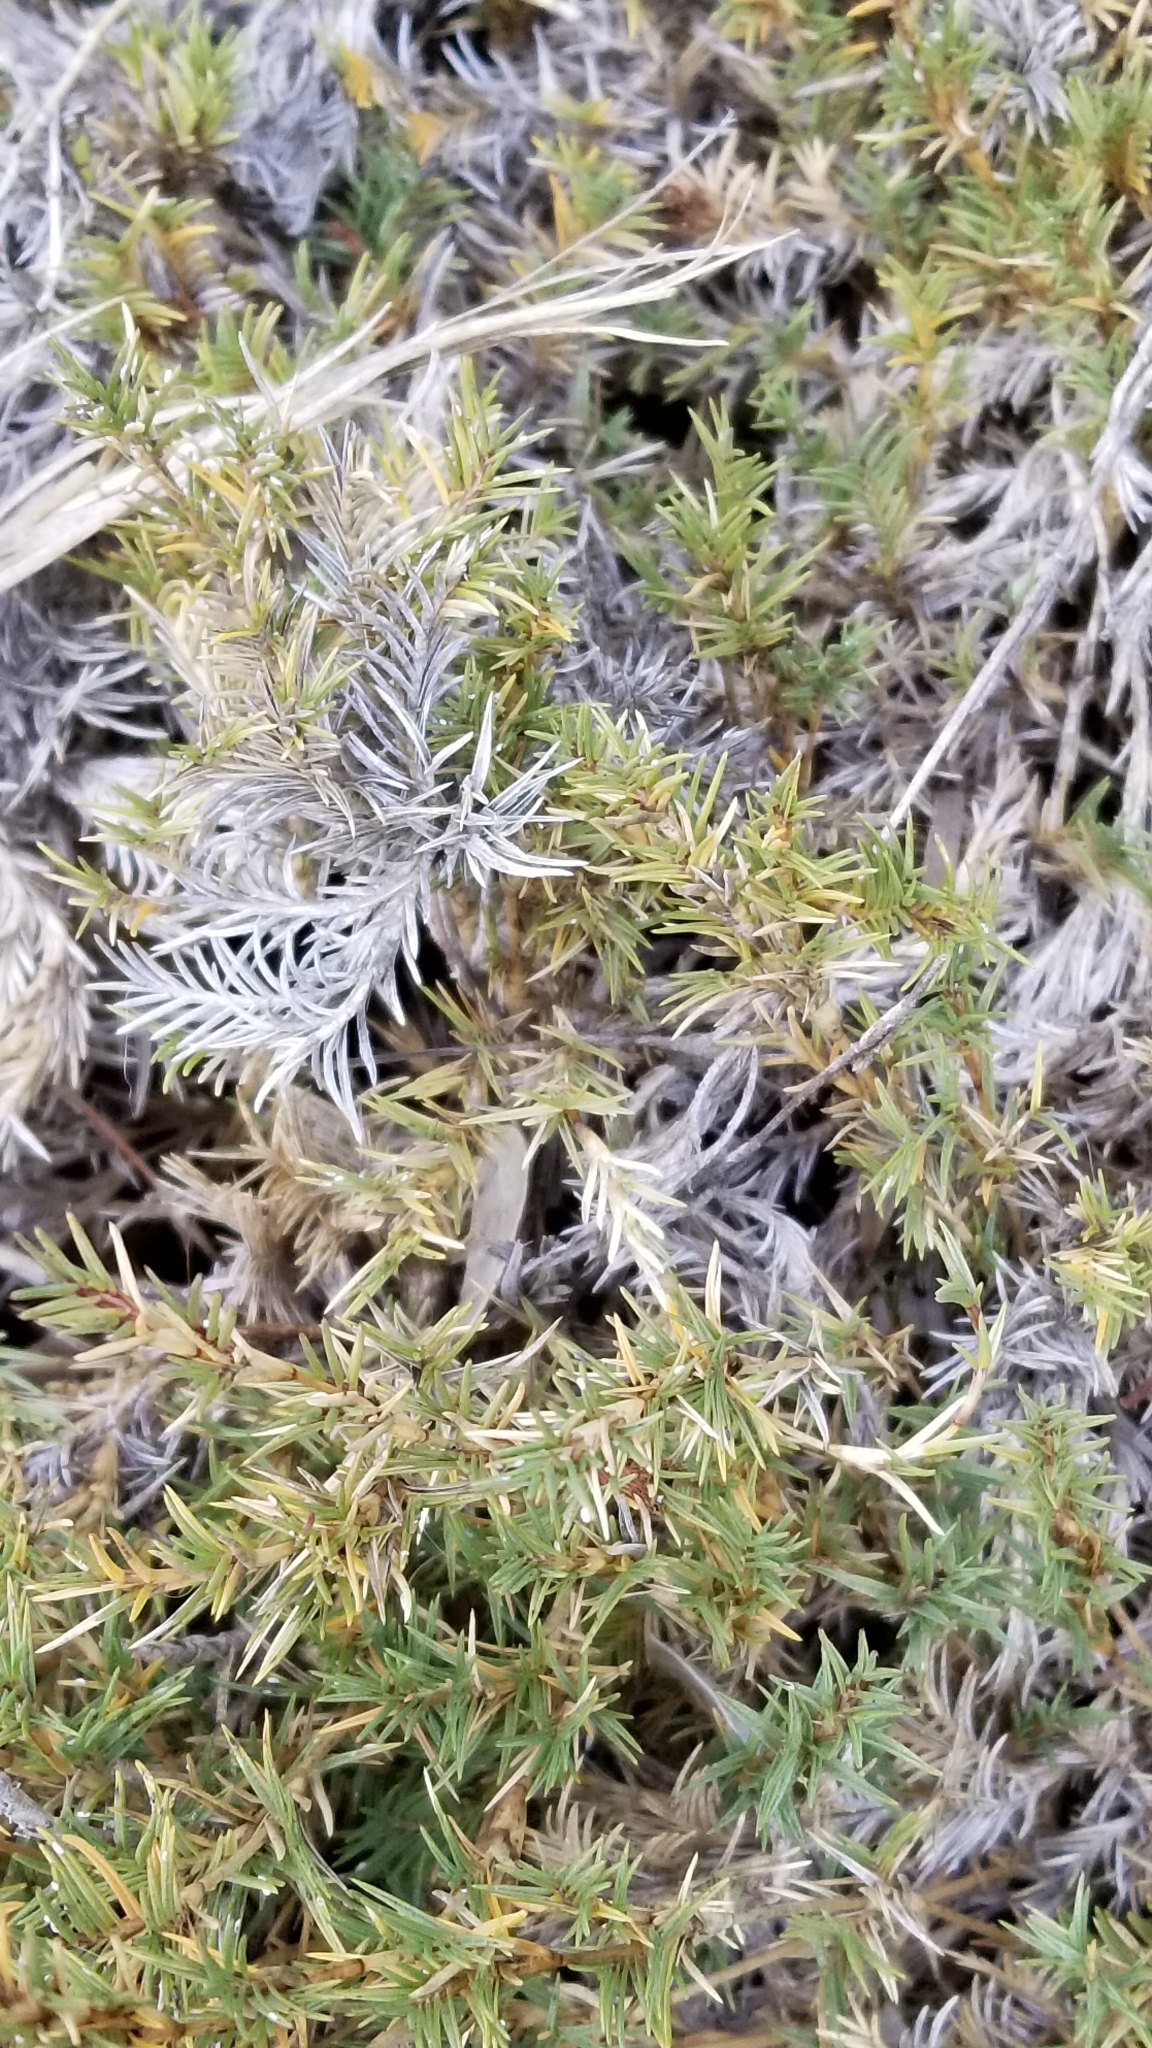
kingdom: Plantae
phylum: Tracheophyta
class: Liliopsida
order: Poales
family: Poaceae
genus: Distichlis
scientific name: Distichlis littoralis
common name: Shore grass
